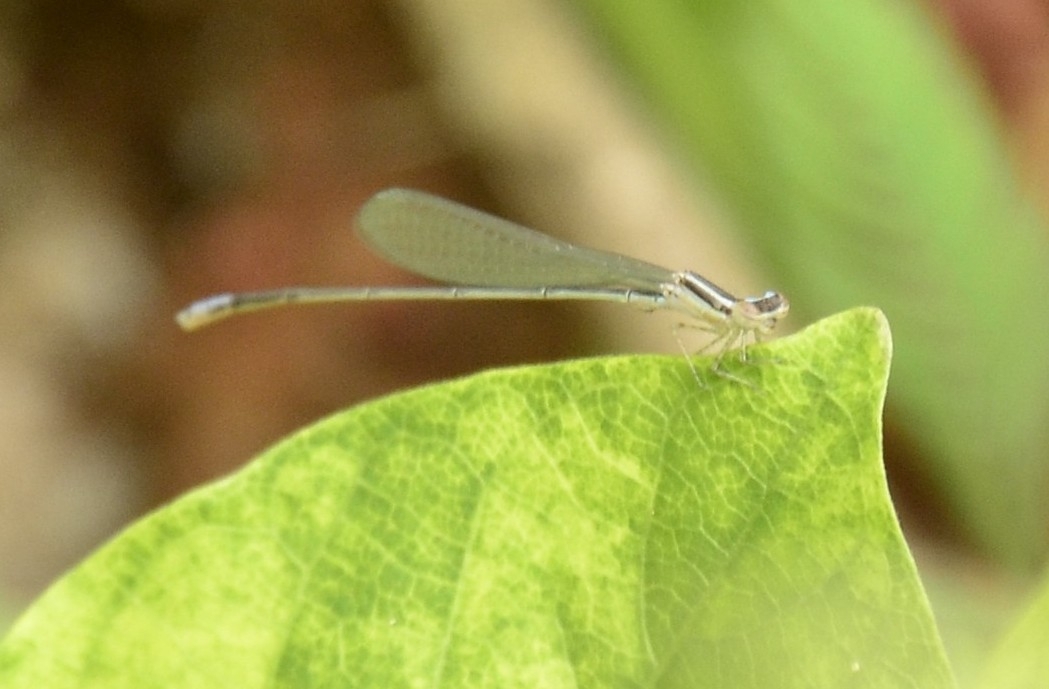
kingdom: Animalia
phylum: Arthropoda
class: Insecta
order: Odonata
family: Coenagrionidae
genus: Aciagrion
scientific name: Aciagrion occidentale
